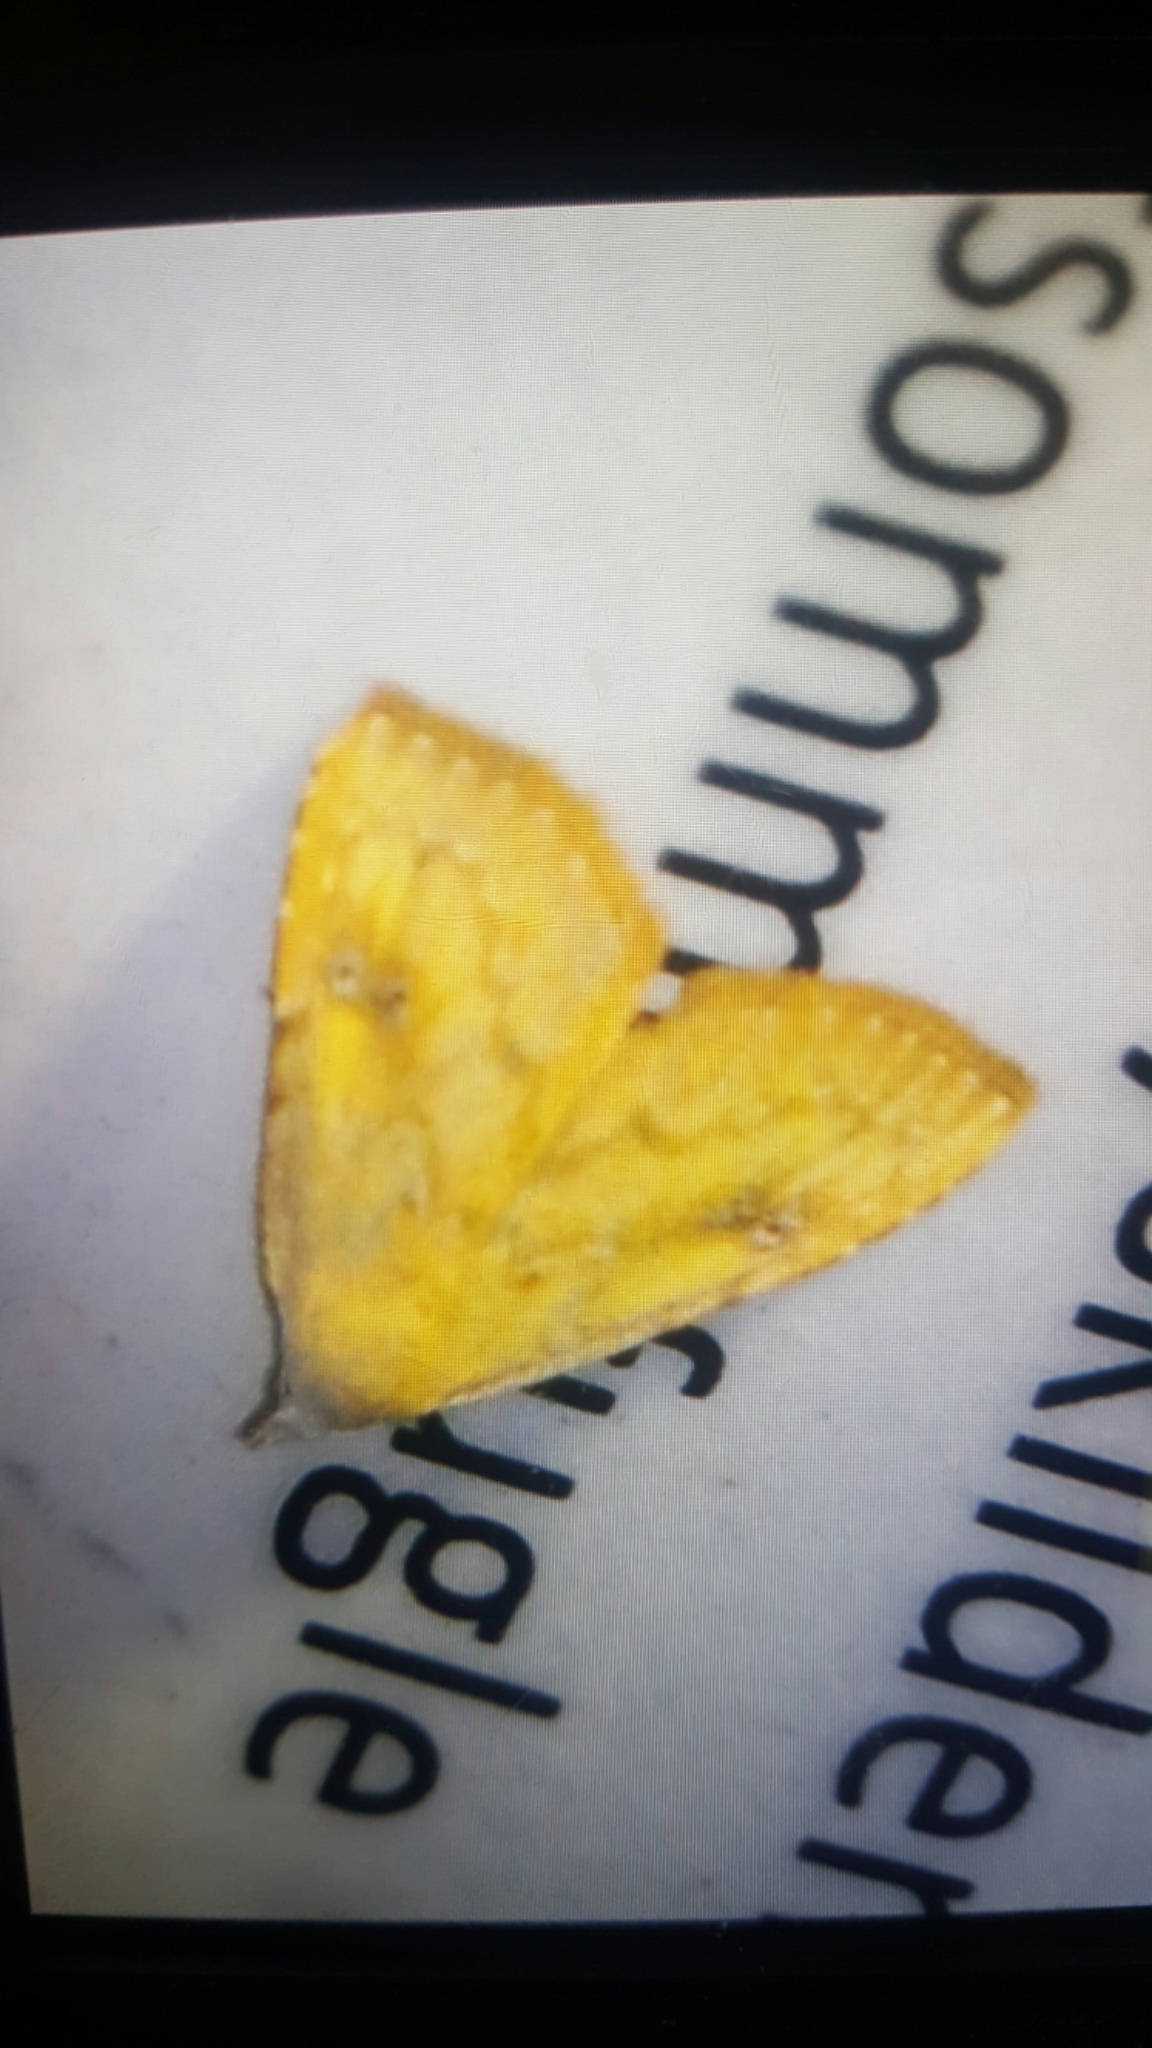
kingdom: Animalia
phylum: Arthropoda
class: Insecta
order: Lepidoptera
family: Erebidae
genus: Rivula
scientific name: Rivula sericealis
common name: Straw dot
